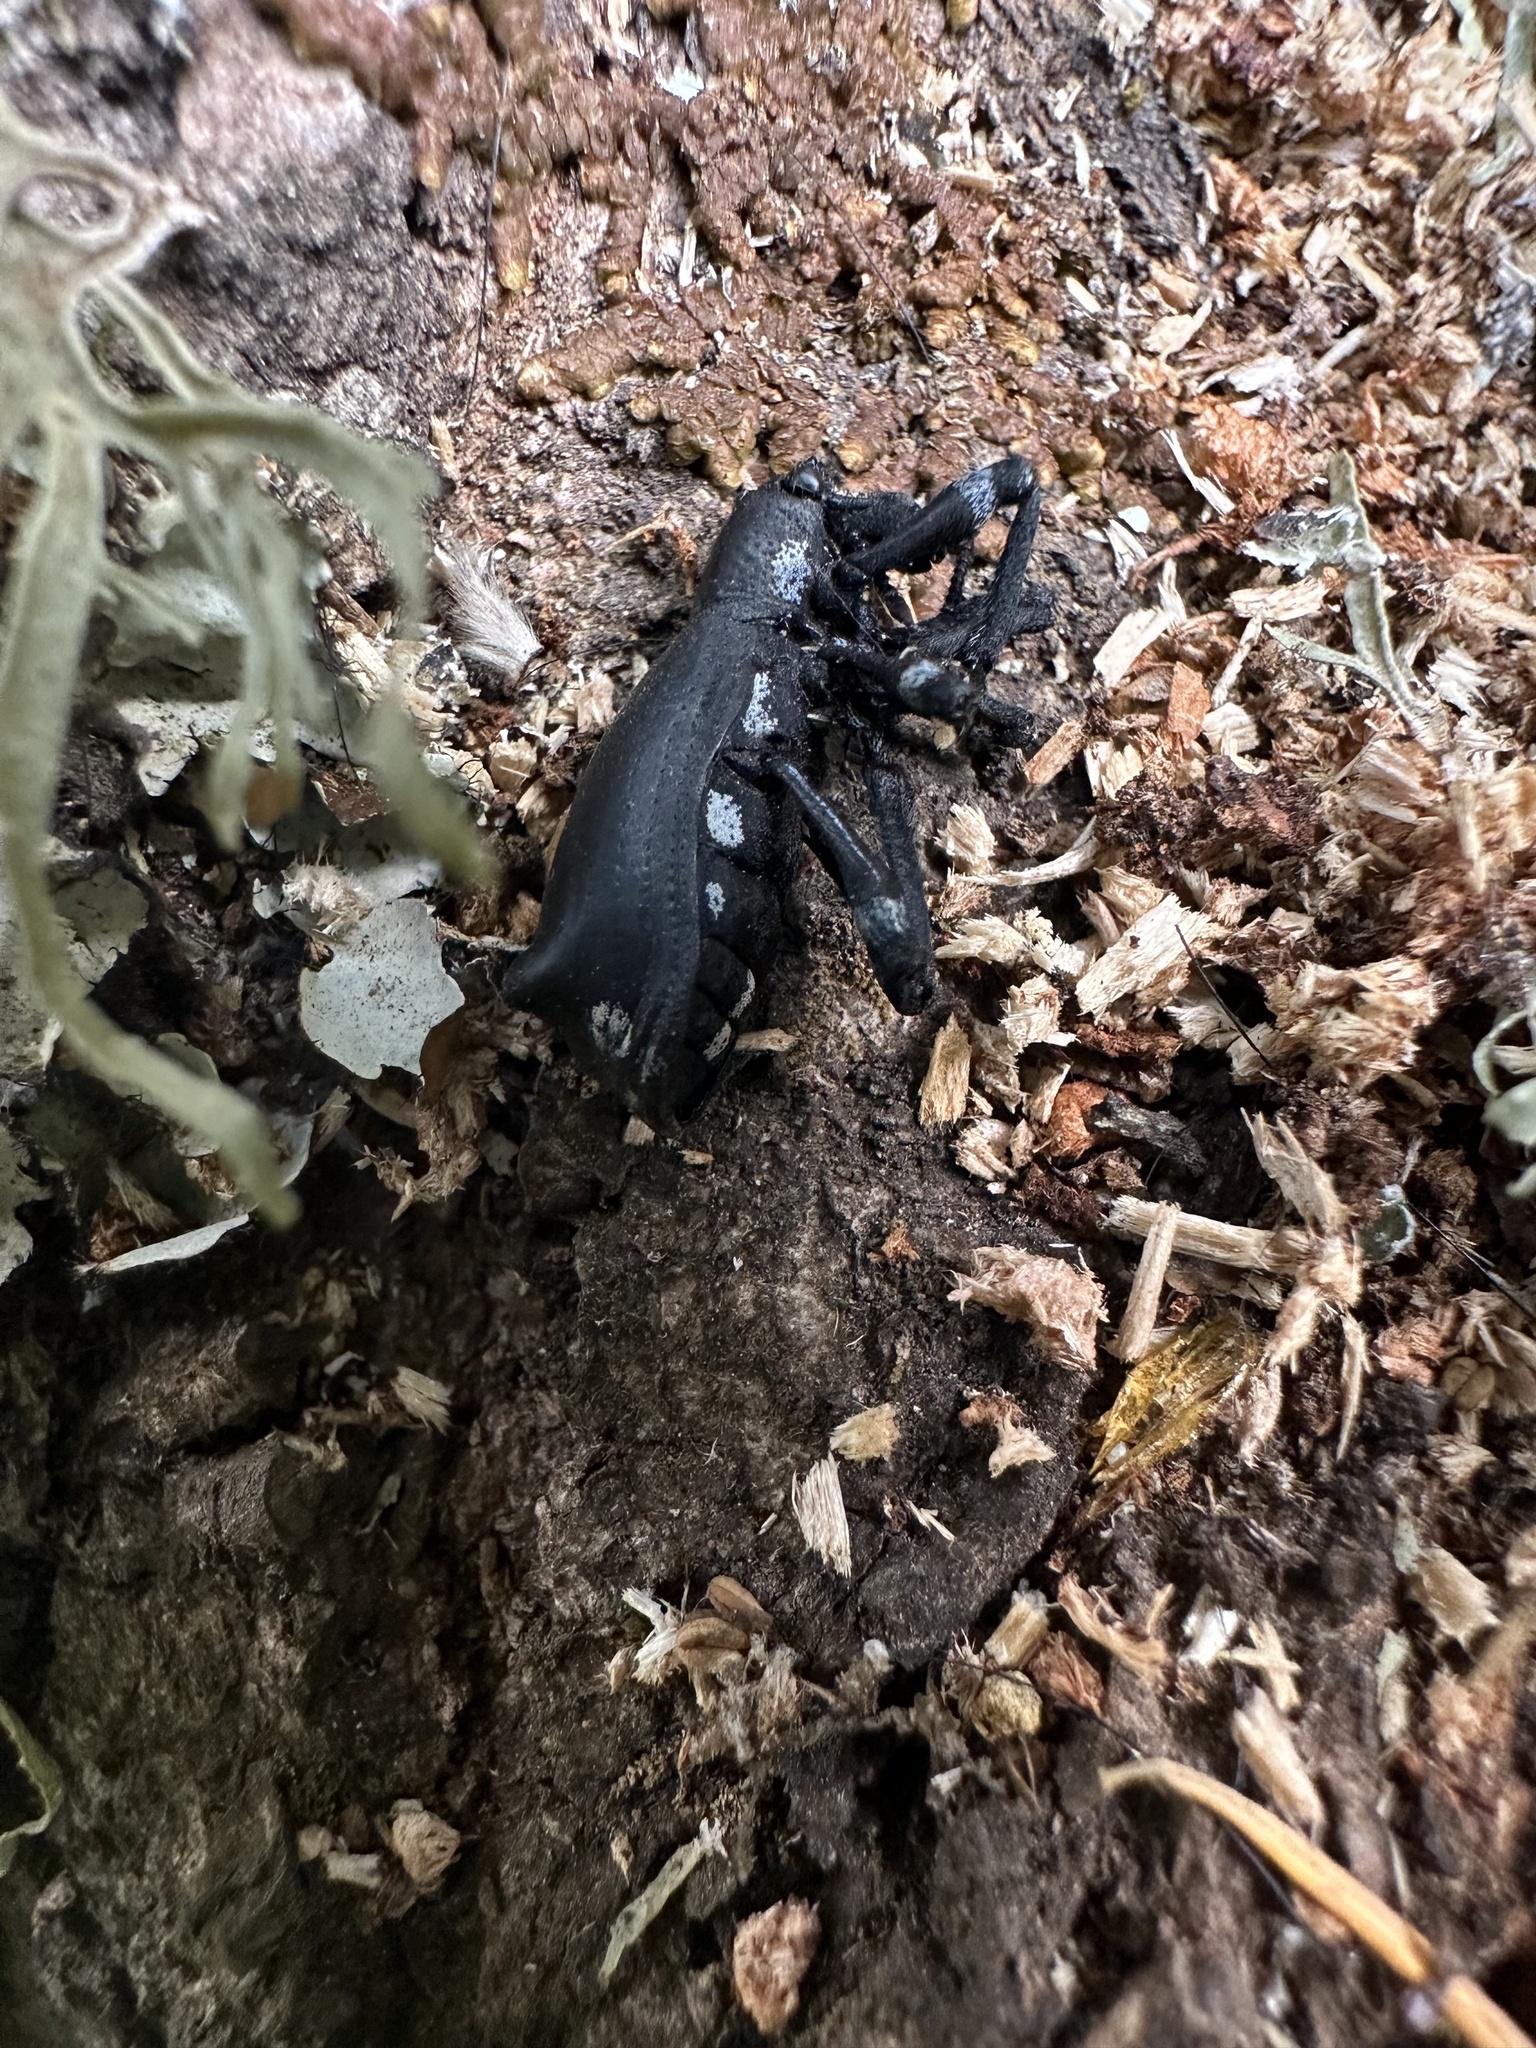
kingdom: Animalia
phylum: Arthropoda
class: Insecta
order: Coleoptera
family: Curculionidae
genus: Aegorhinus
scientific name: Aegorhinus
